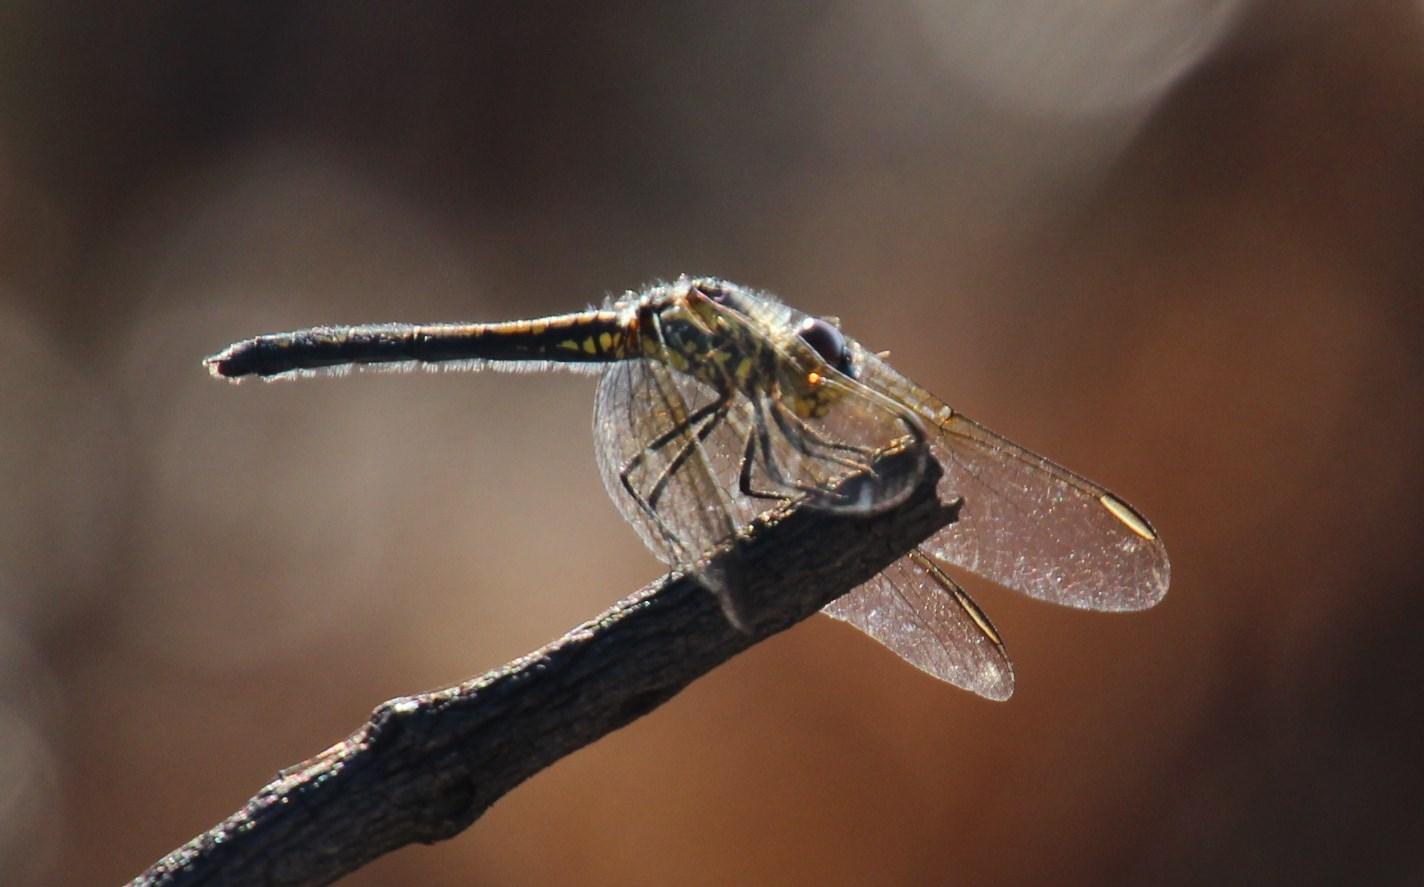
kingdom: Animalia
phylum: Arthropoda
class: Insecta
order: Odonata
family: Libellulidae
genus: Trithemis
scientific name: Trithemis stictica
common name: Jaunty dropwing
